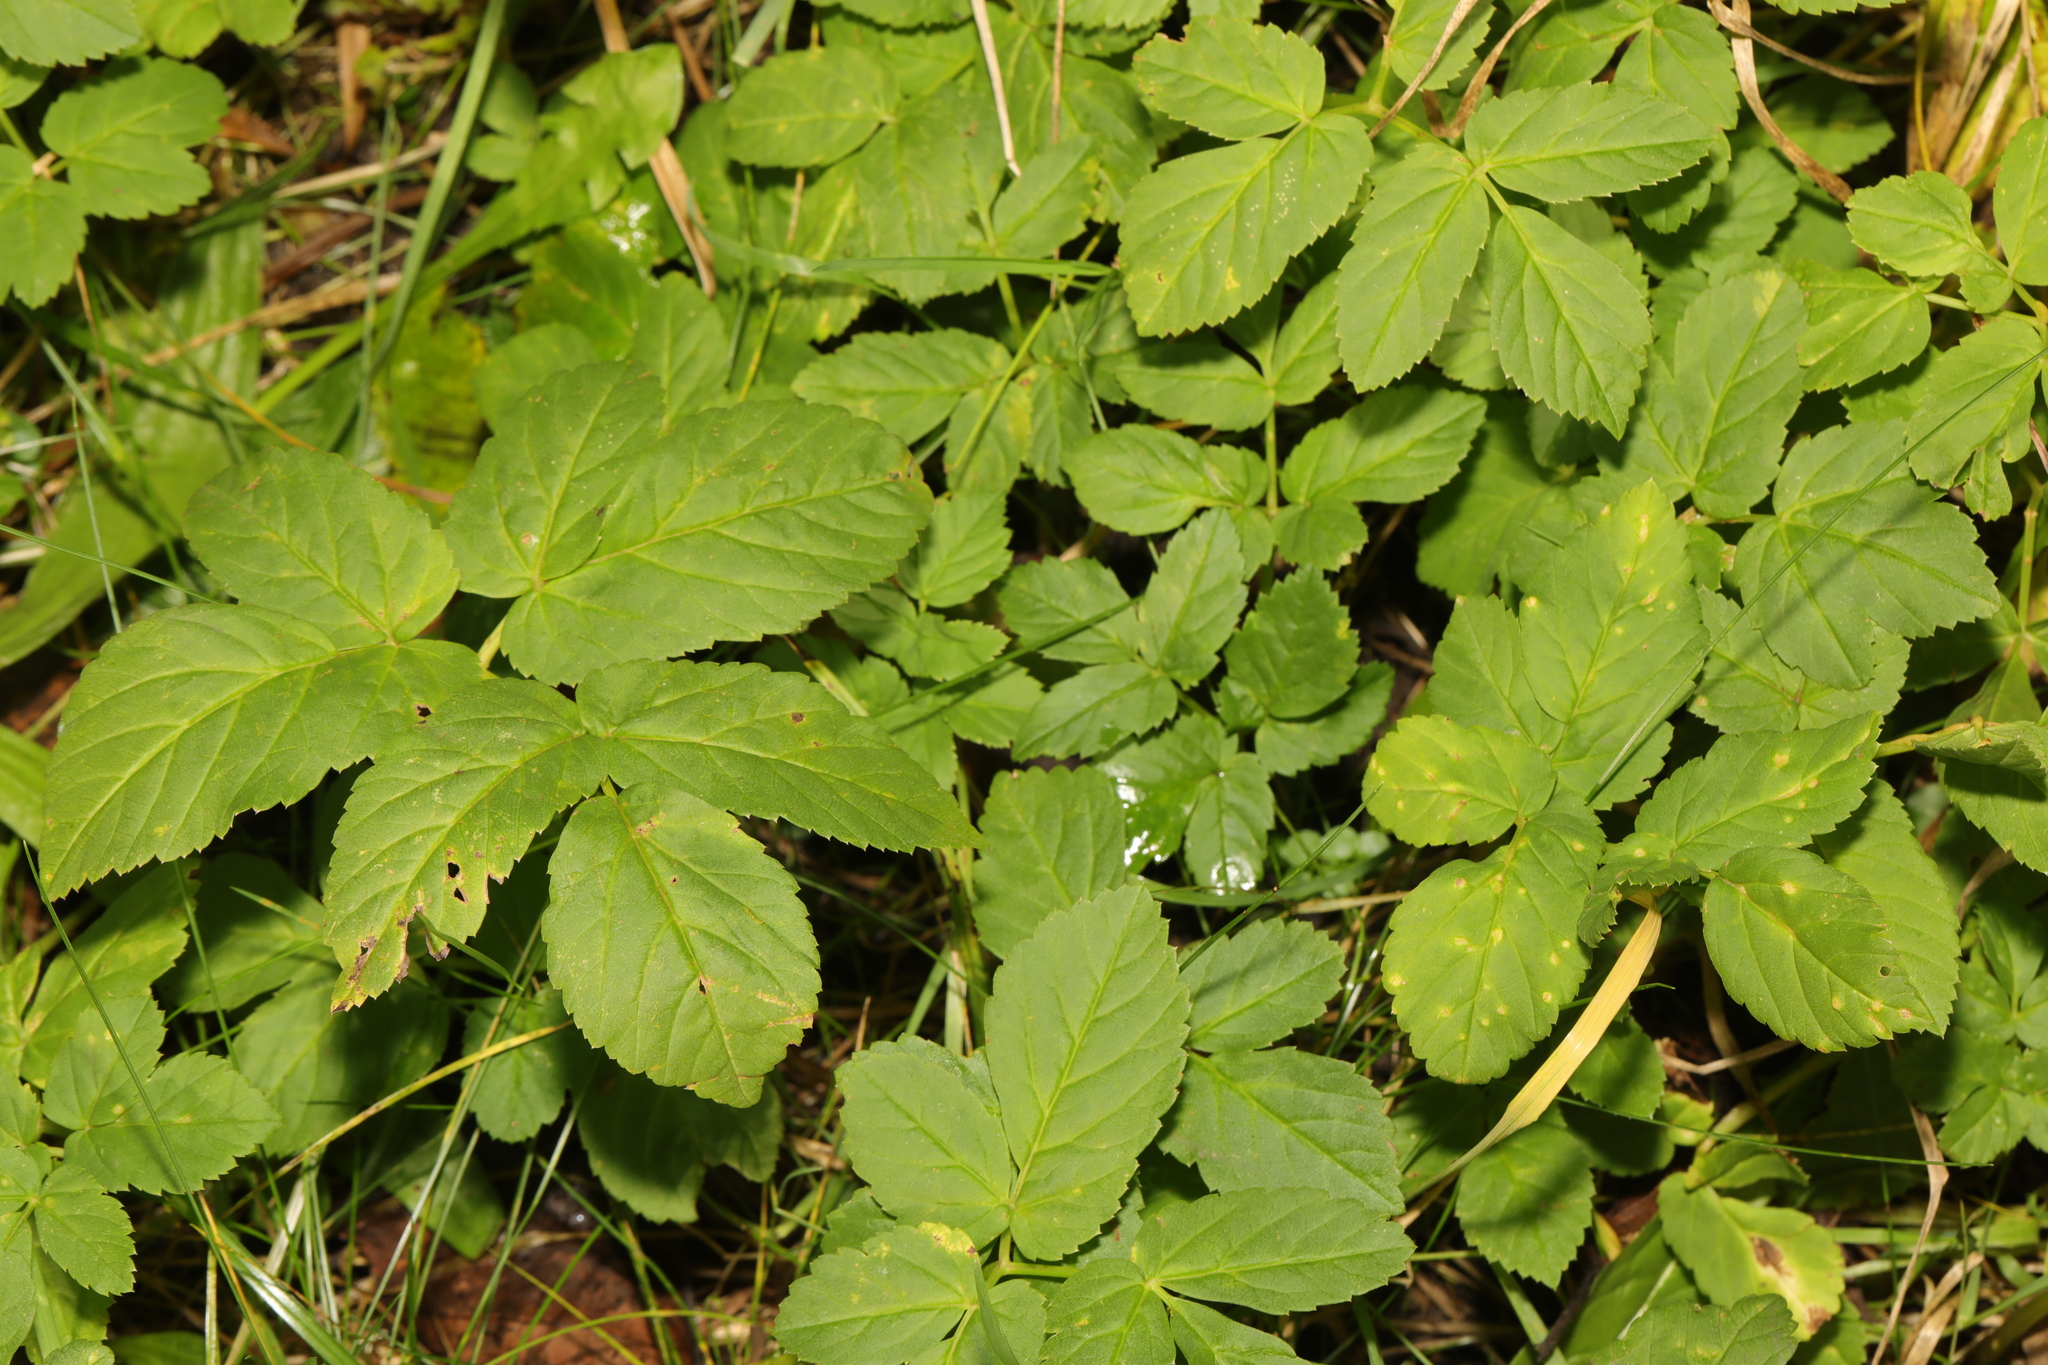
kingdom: Plantae
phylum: Tracheophyta
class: Magnoliopsida
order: Apiales
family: Apiaceae
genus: Aegopodium
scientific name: Aegopodium podagraria
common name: Ground-elder
